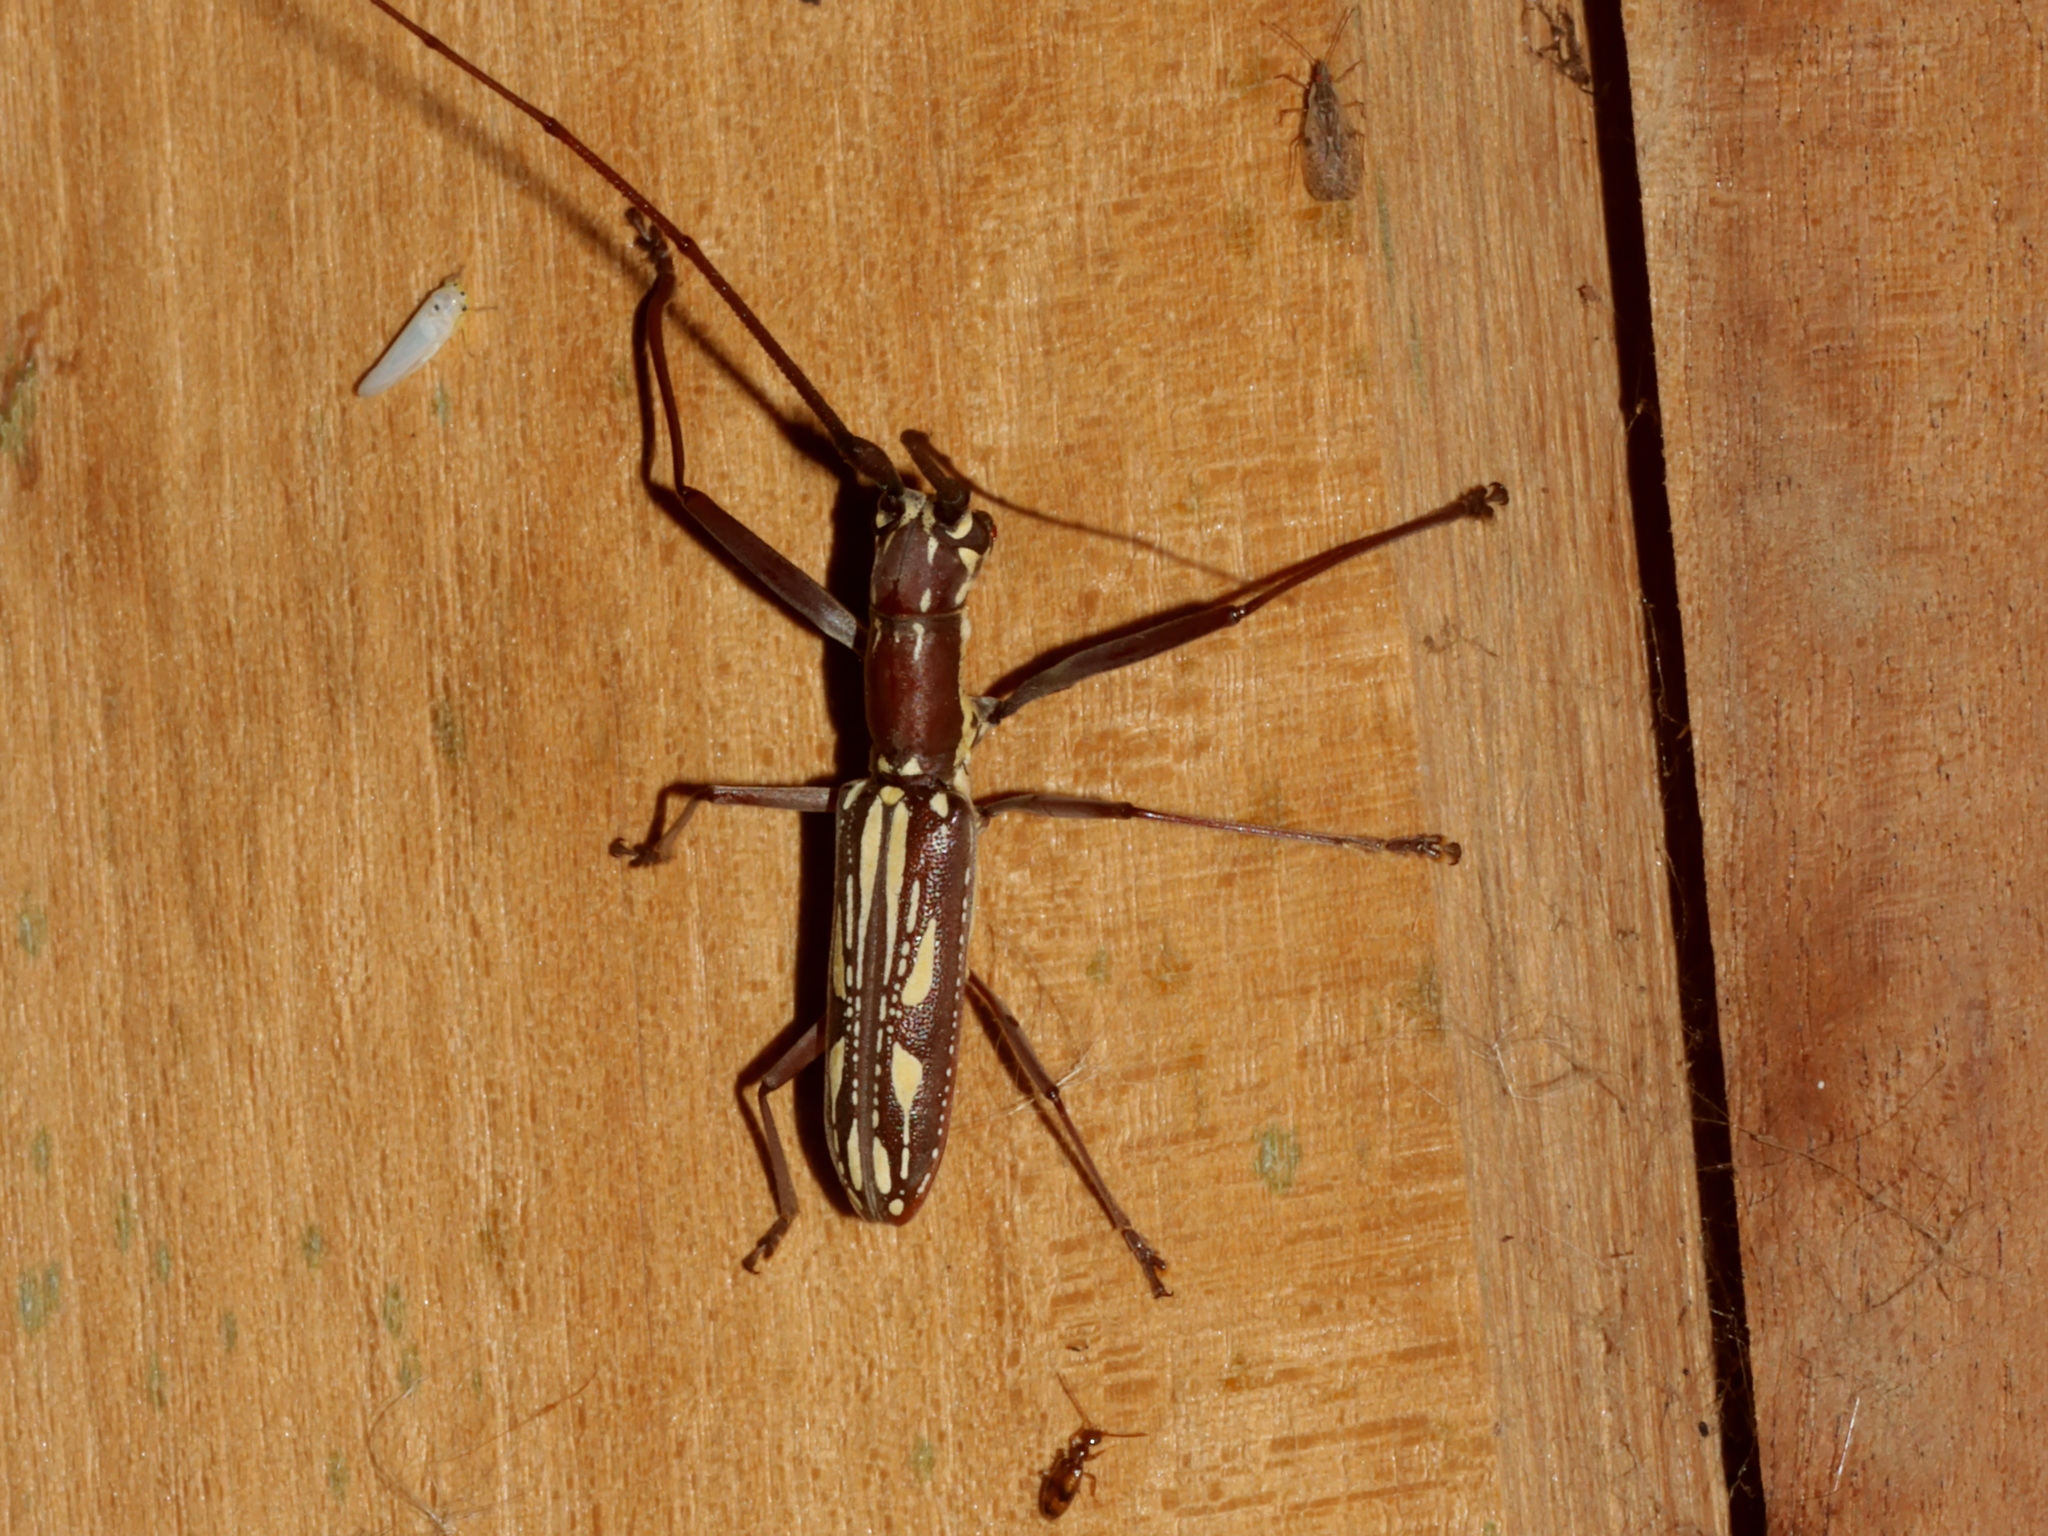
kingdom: Animalia
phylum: Arthropoda
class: Insecta
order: Coleoptera
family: Cerambycidae
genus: Olenecamptus
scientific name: Olenecamptus dominus
